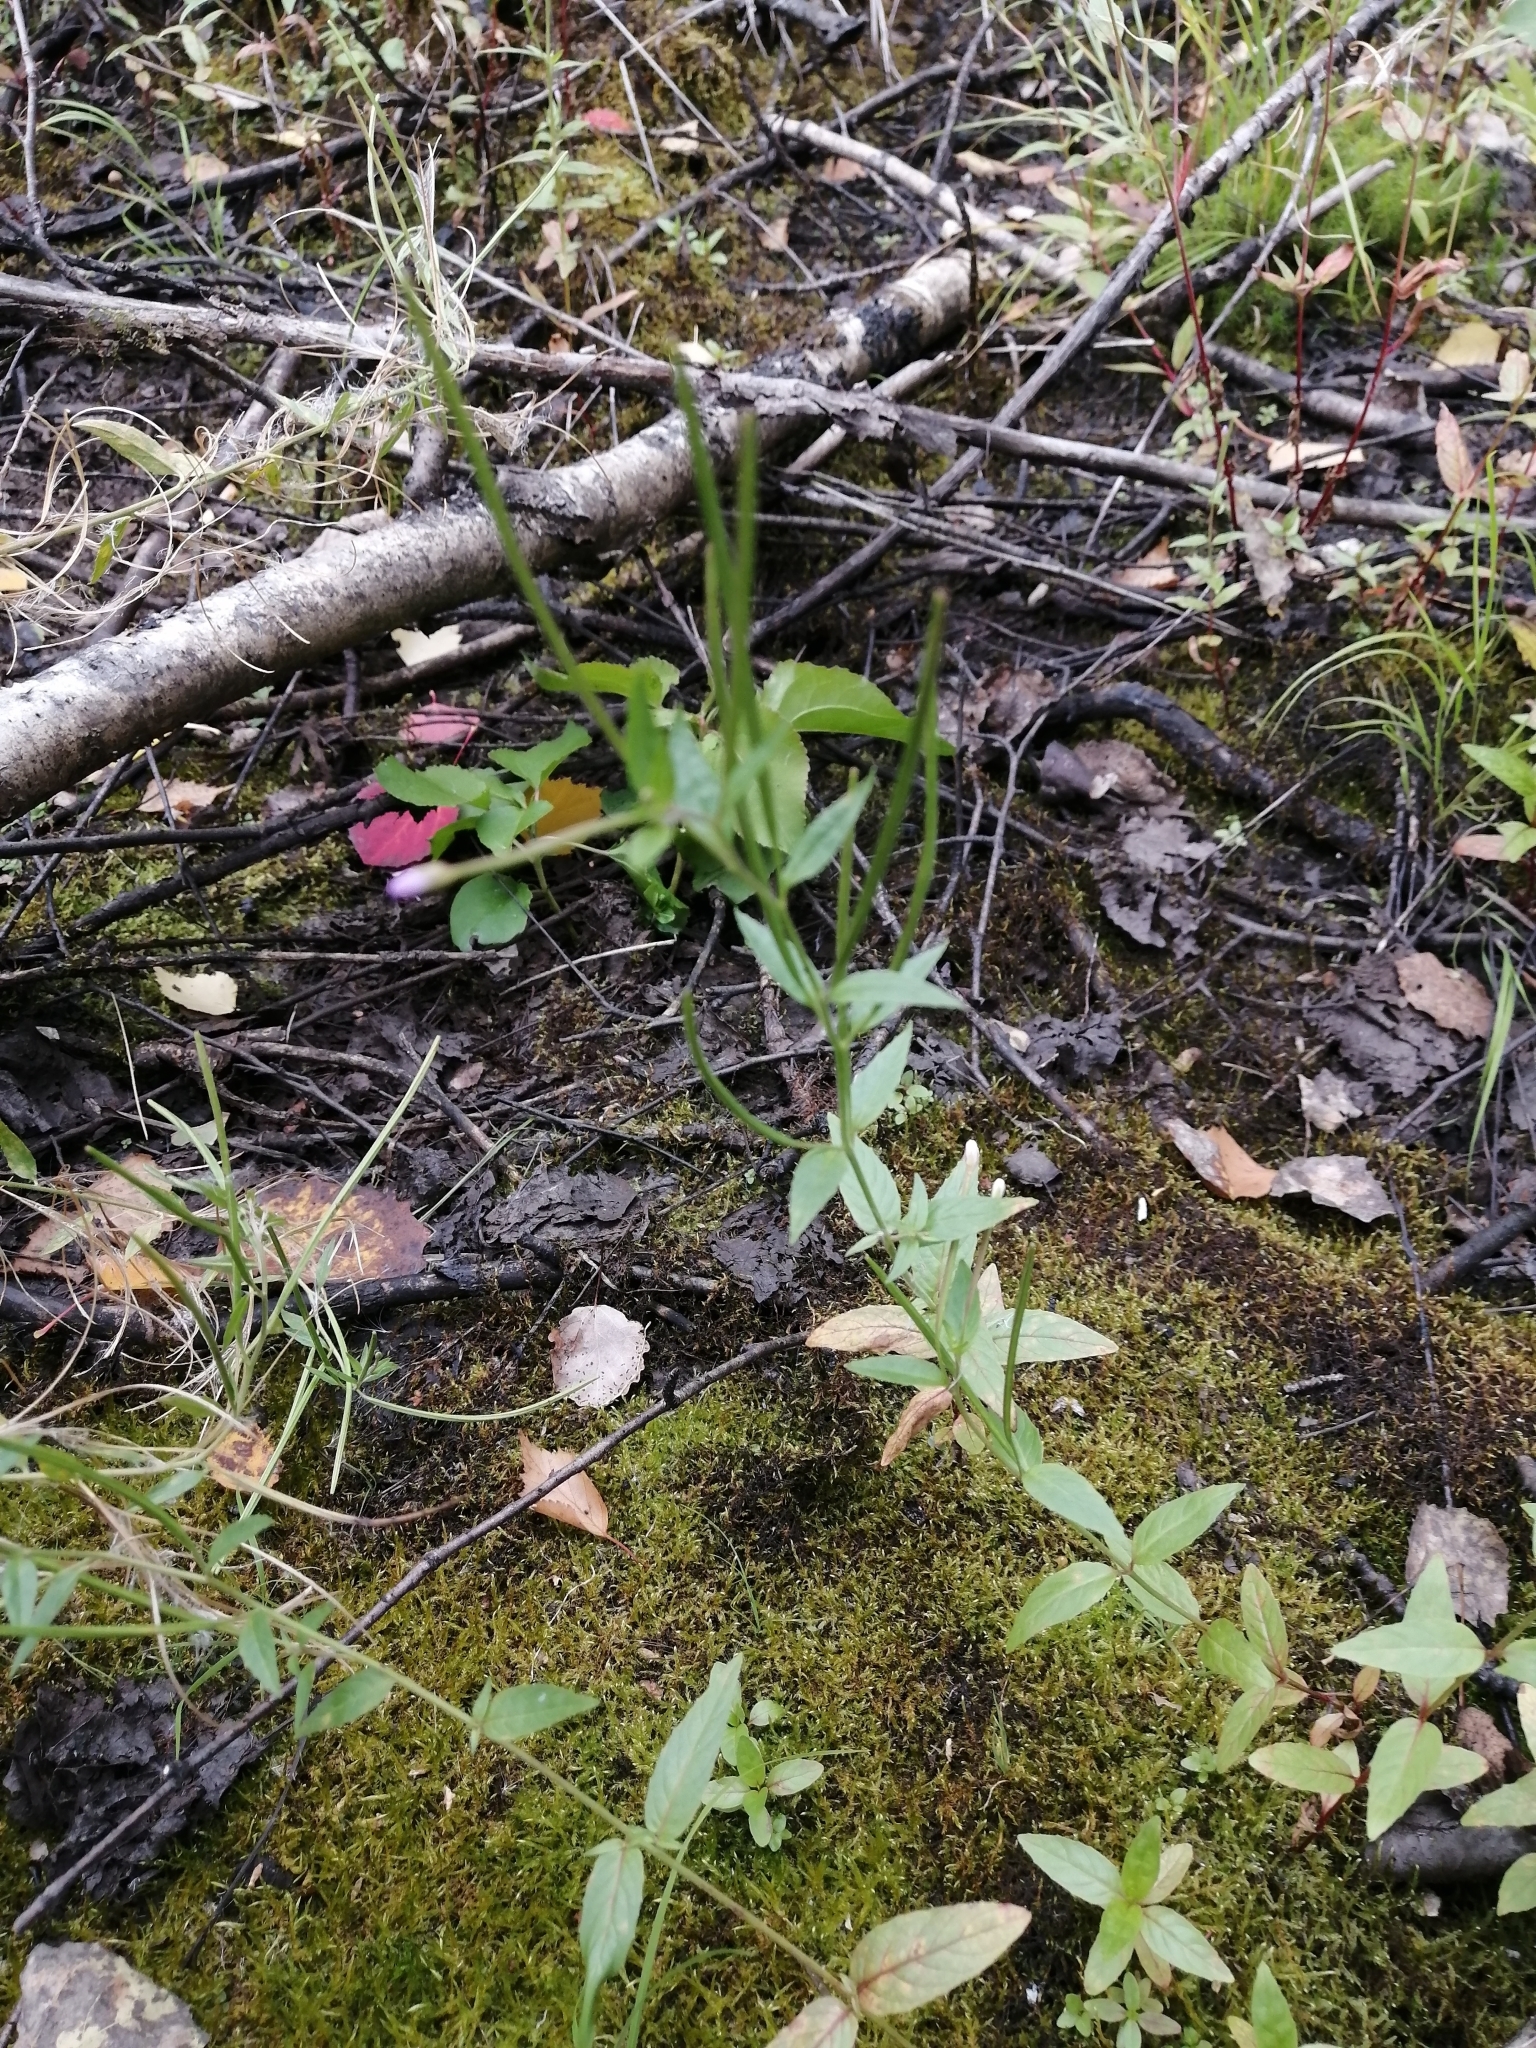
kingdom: Plantae
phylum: Tracheophyta
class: Magnoliopsida
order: Myrtales
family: Onagraceae
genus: Epilobium
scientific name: Epilobium pseudorubescens
